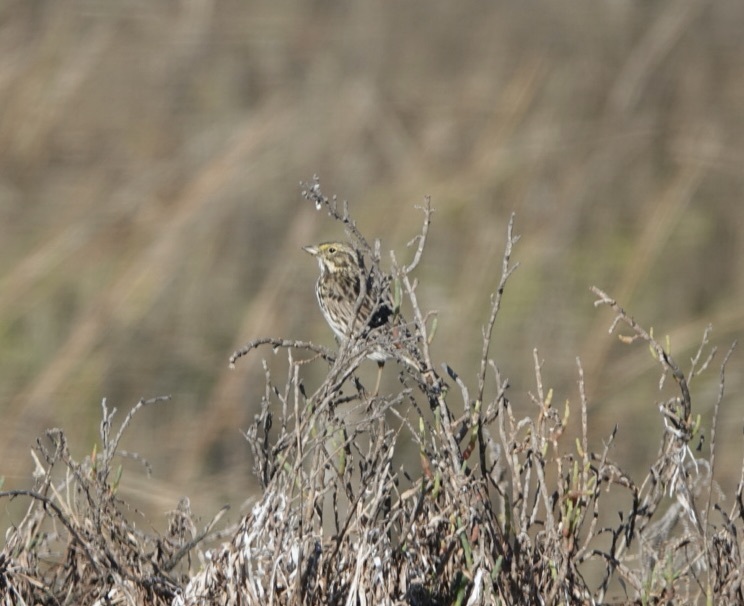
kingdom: Animalia
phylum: Chordata
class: Aves
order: Passeriformes
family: Passerellidae
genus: Passerculus
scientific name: Passerculus sandwichensis
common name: Savannah sparrow
